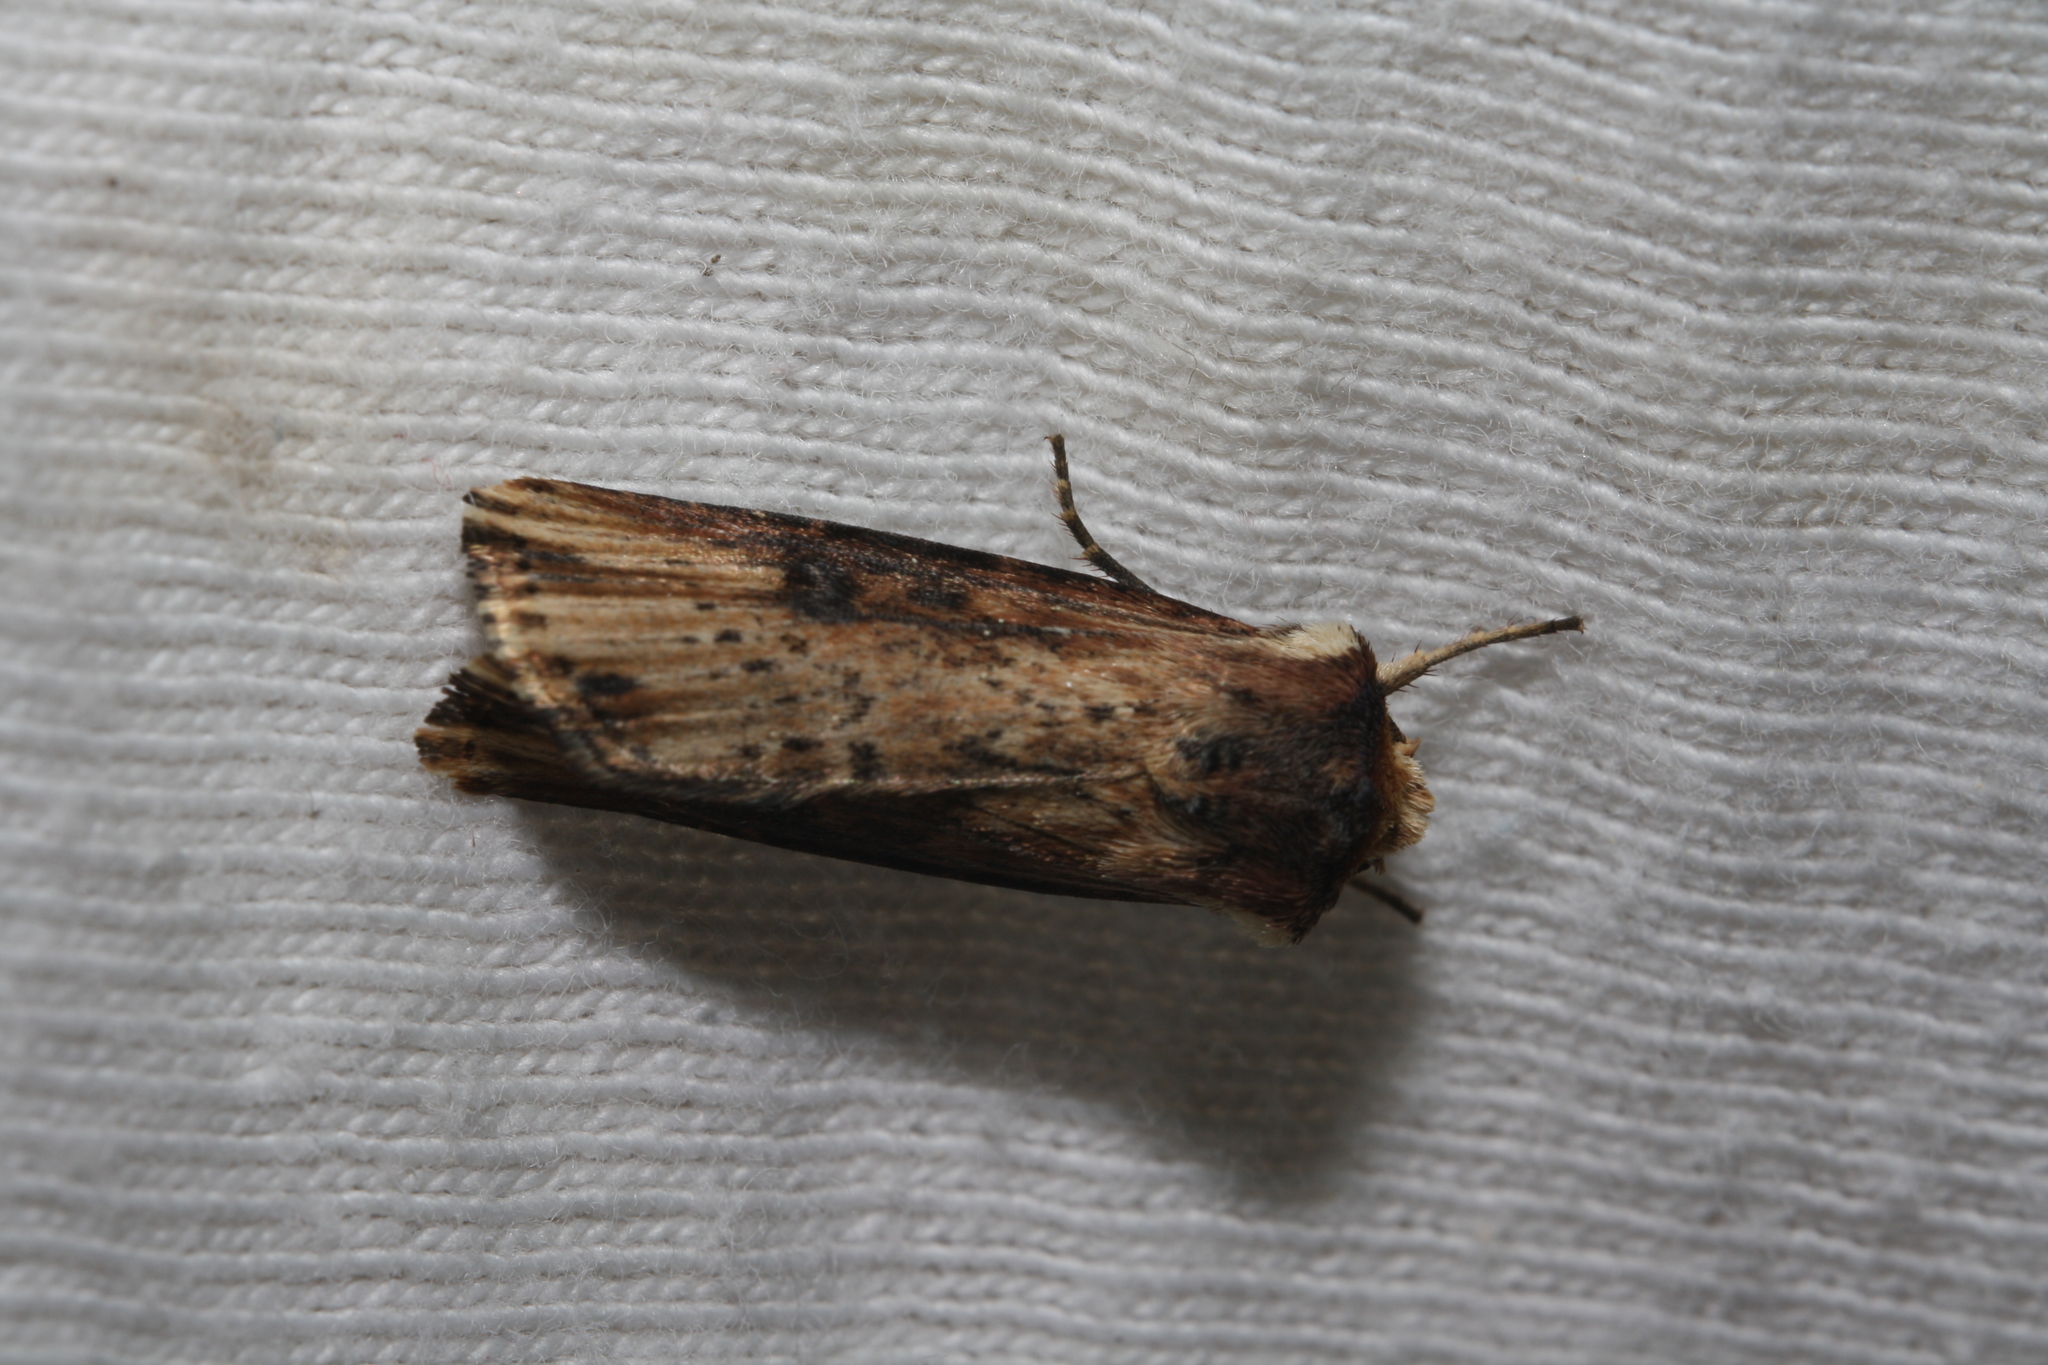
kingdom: Animalia
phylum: Arthropoda
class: Insecta
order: Lepidoptera
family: Noctuidae
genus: Axylia
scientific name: Axylia putris
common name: Flame
